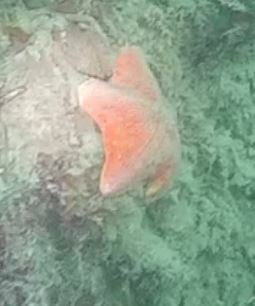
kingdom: Animalia
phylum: Echinodermata
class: Asteroidea
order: Valvatida
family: Asterinidae
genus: Patiria
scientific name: Patiria miniata
